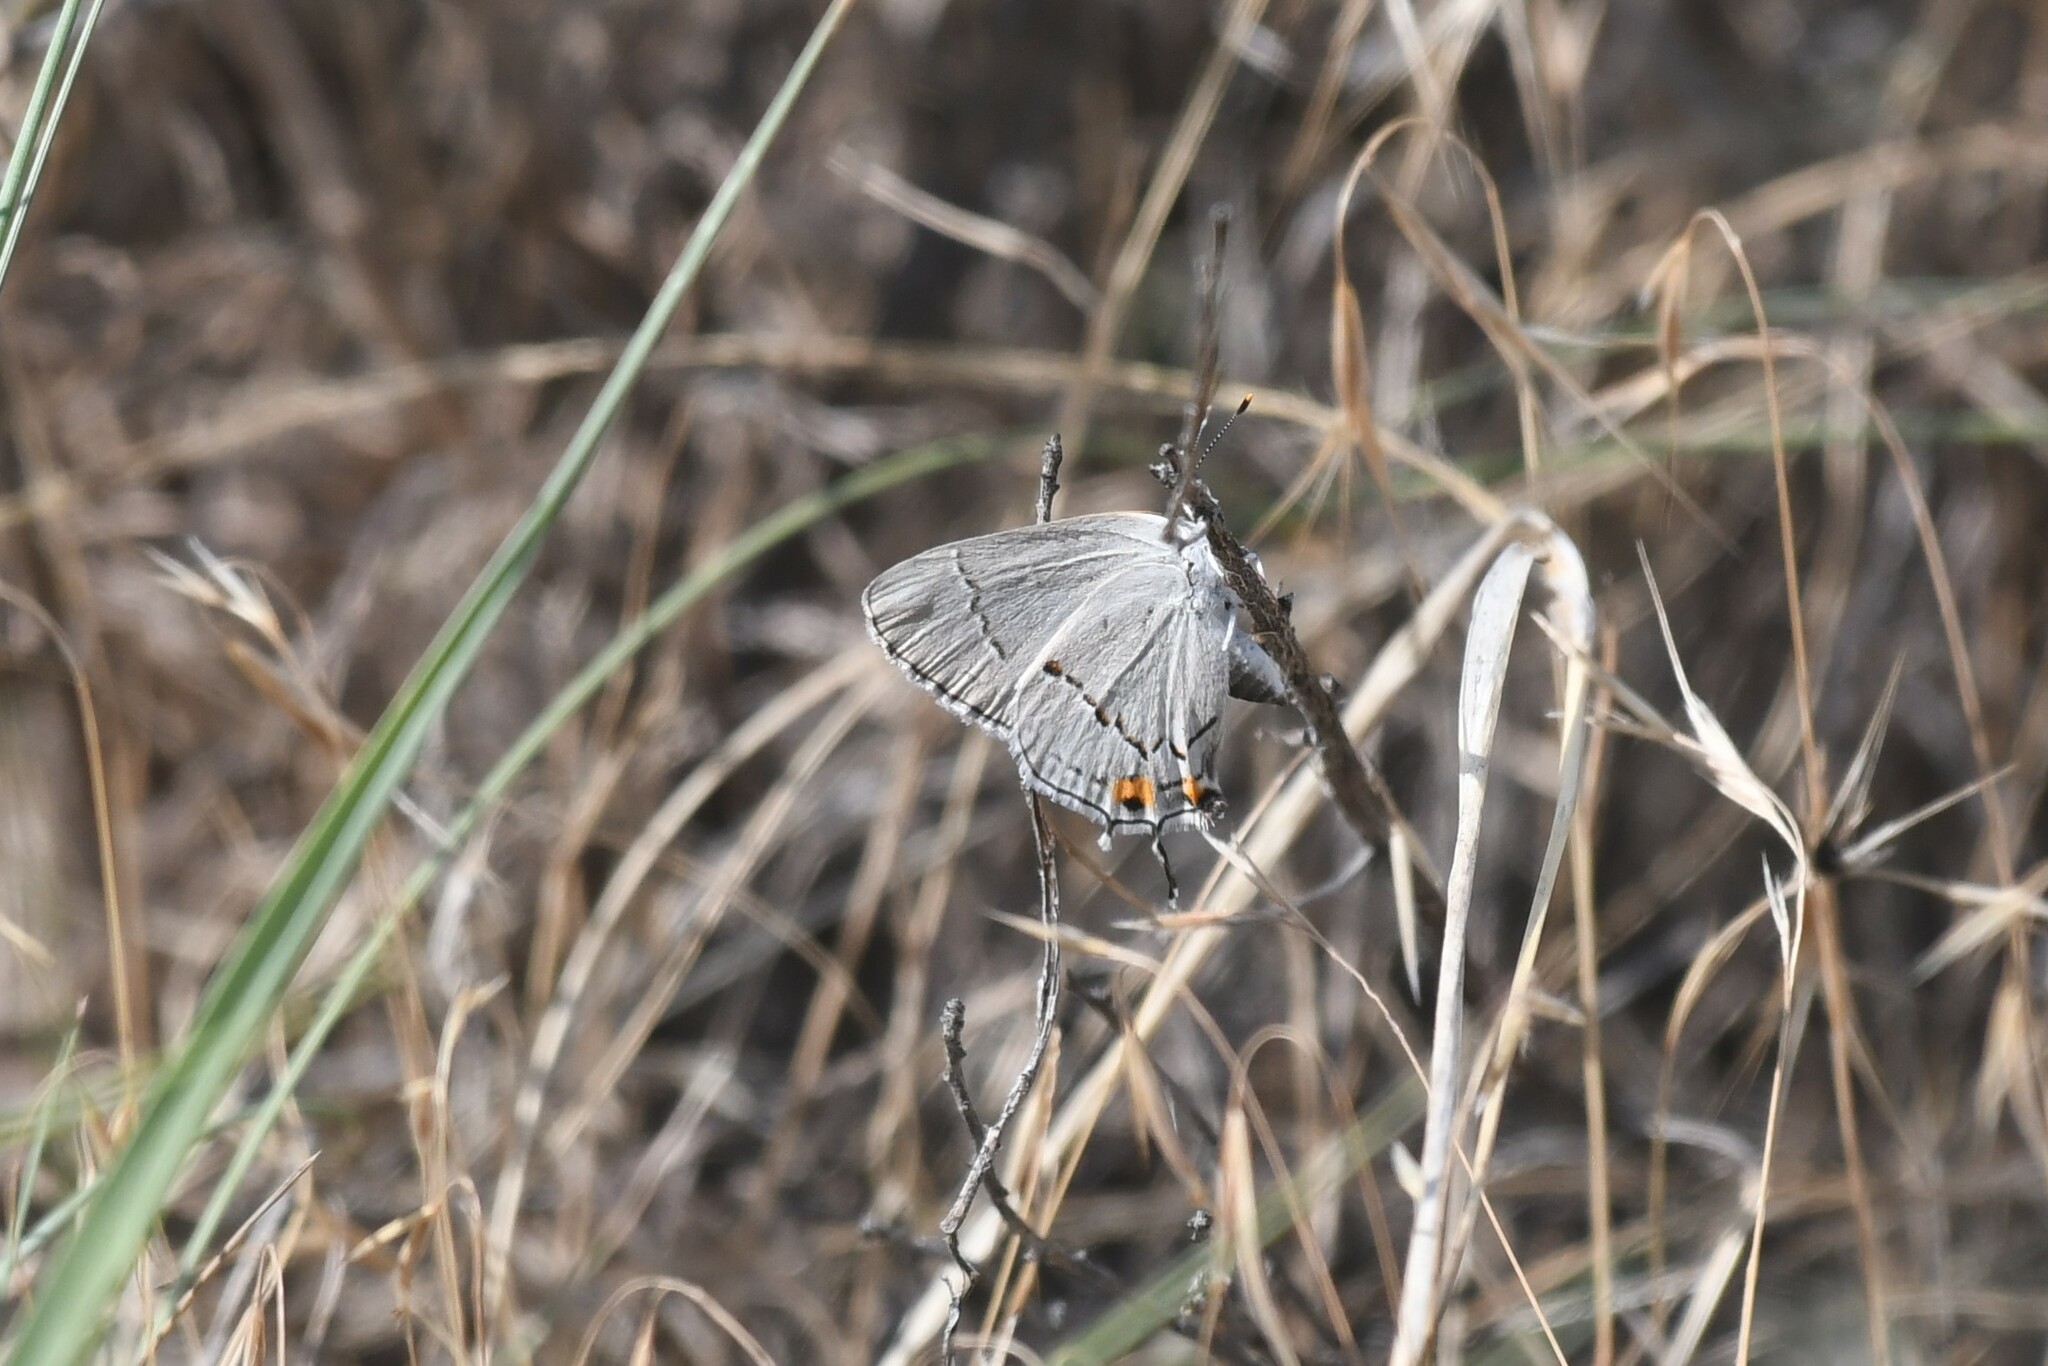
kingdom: Animalia
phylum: Arthropoda
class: Insecta
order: Lepidoptera
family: Lycaenidae
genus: Strymon
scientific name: Strymon melinus
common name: Gray hairstreak
